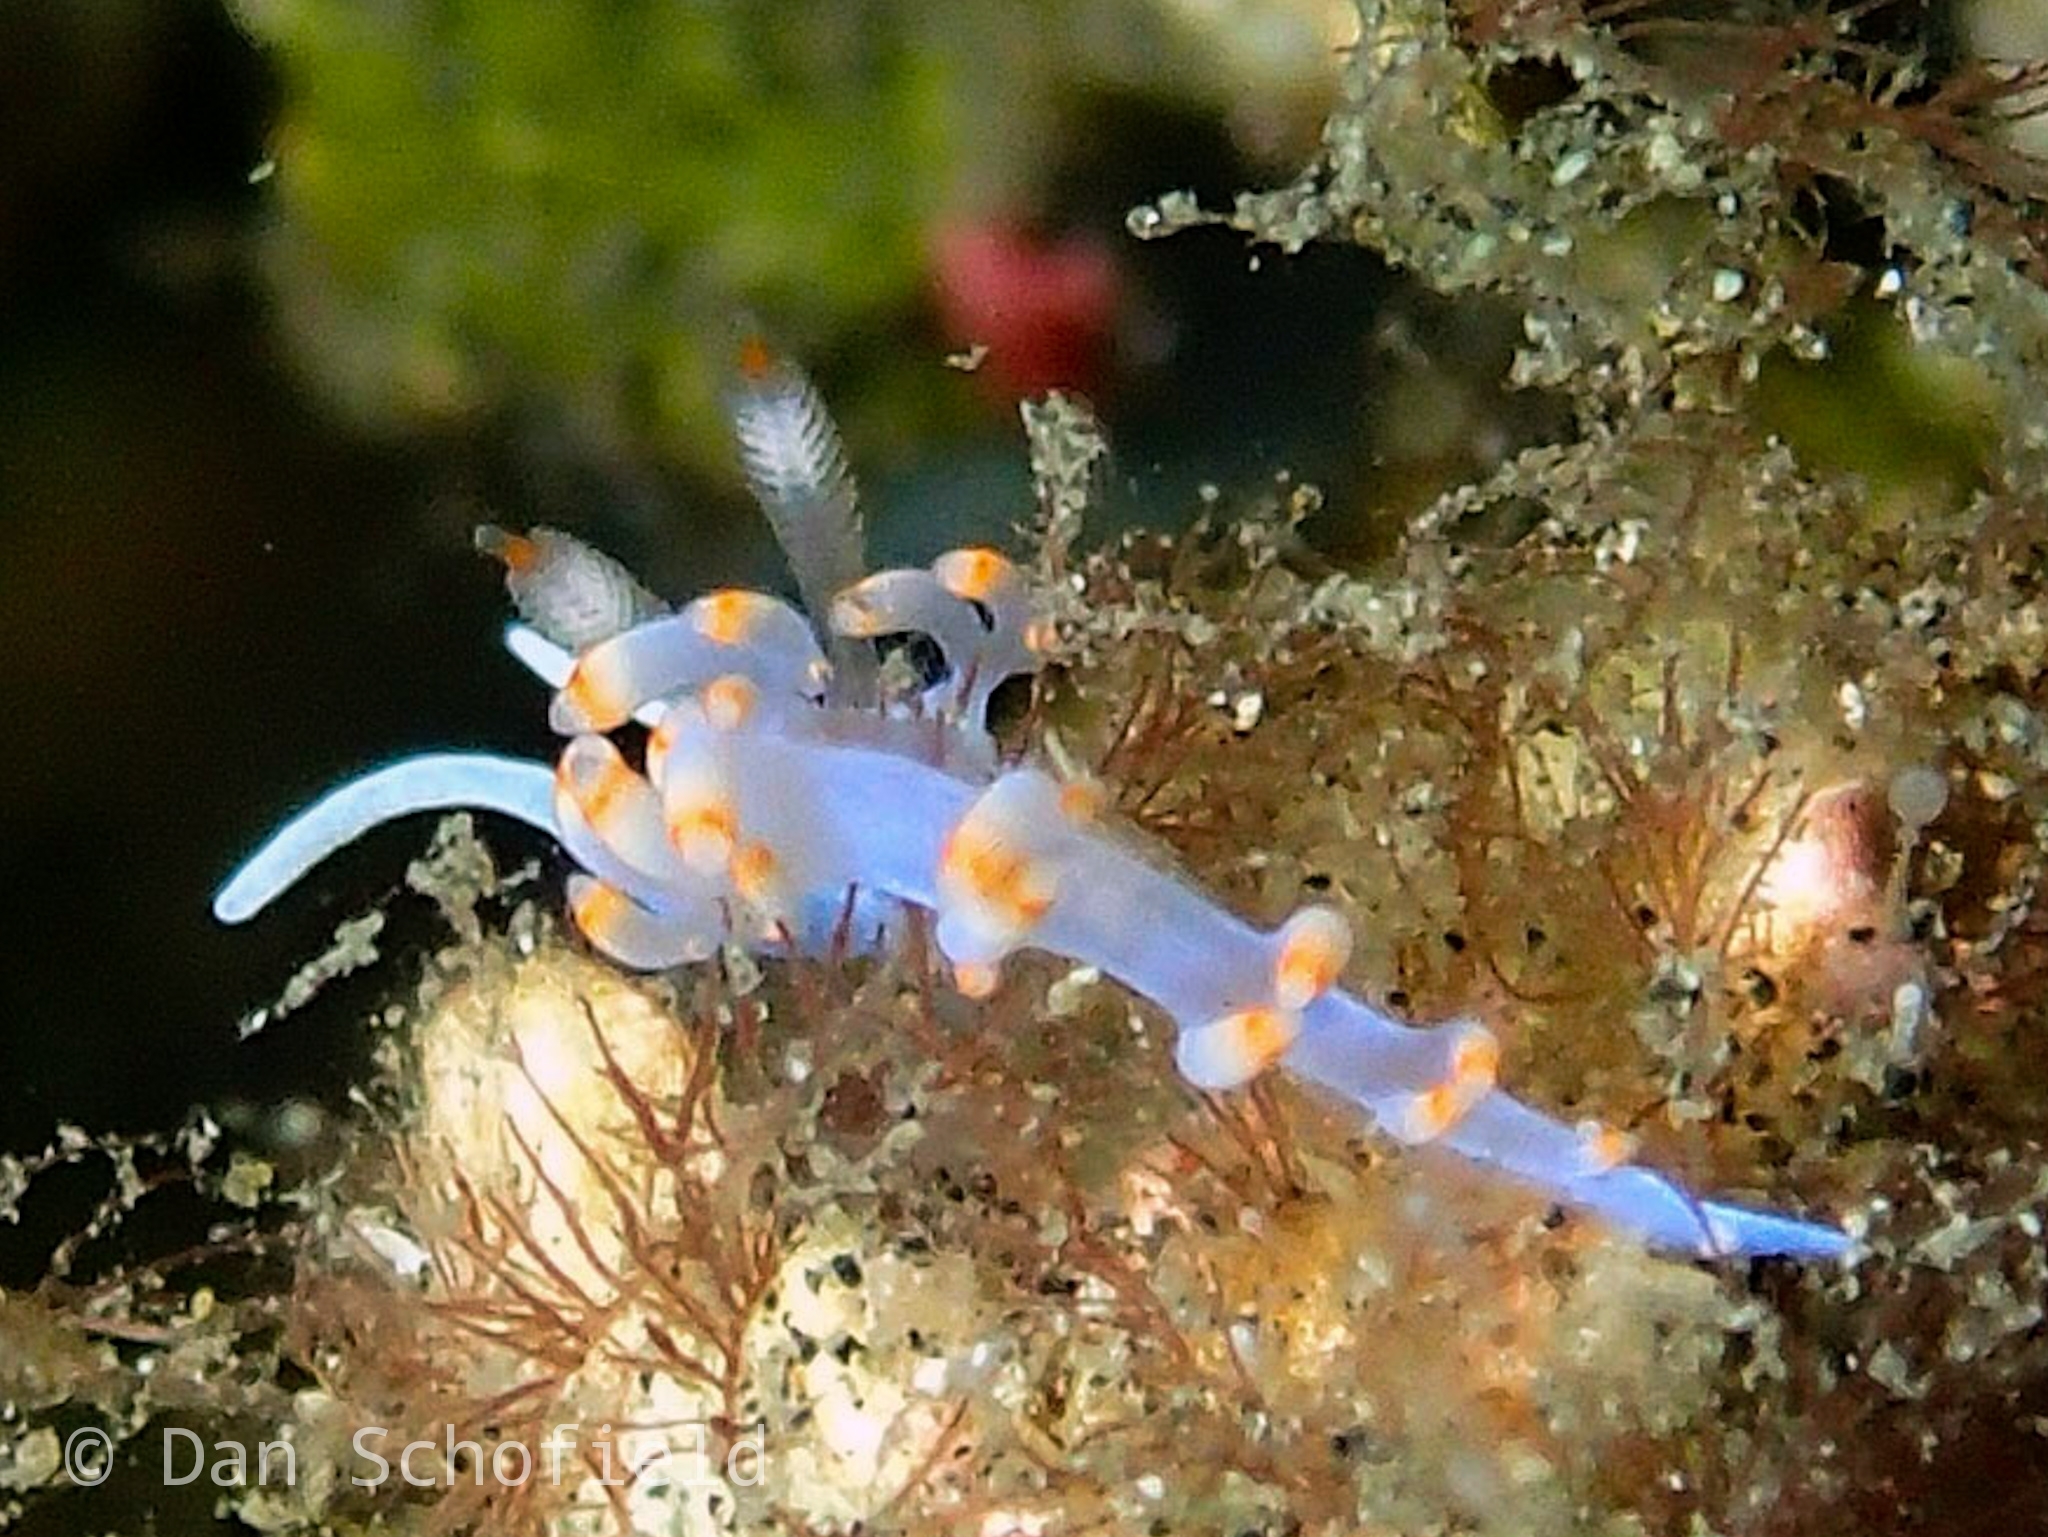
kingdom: Animalia
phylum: Mollusca
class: Gastropoda
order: Nudibranchia
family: Samlidae
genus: Samla
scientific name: Samla bicolor
